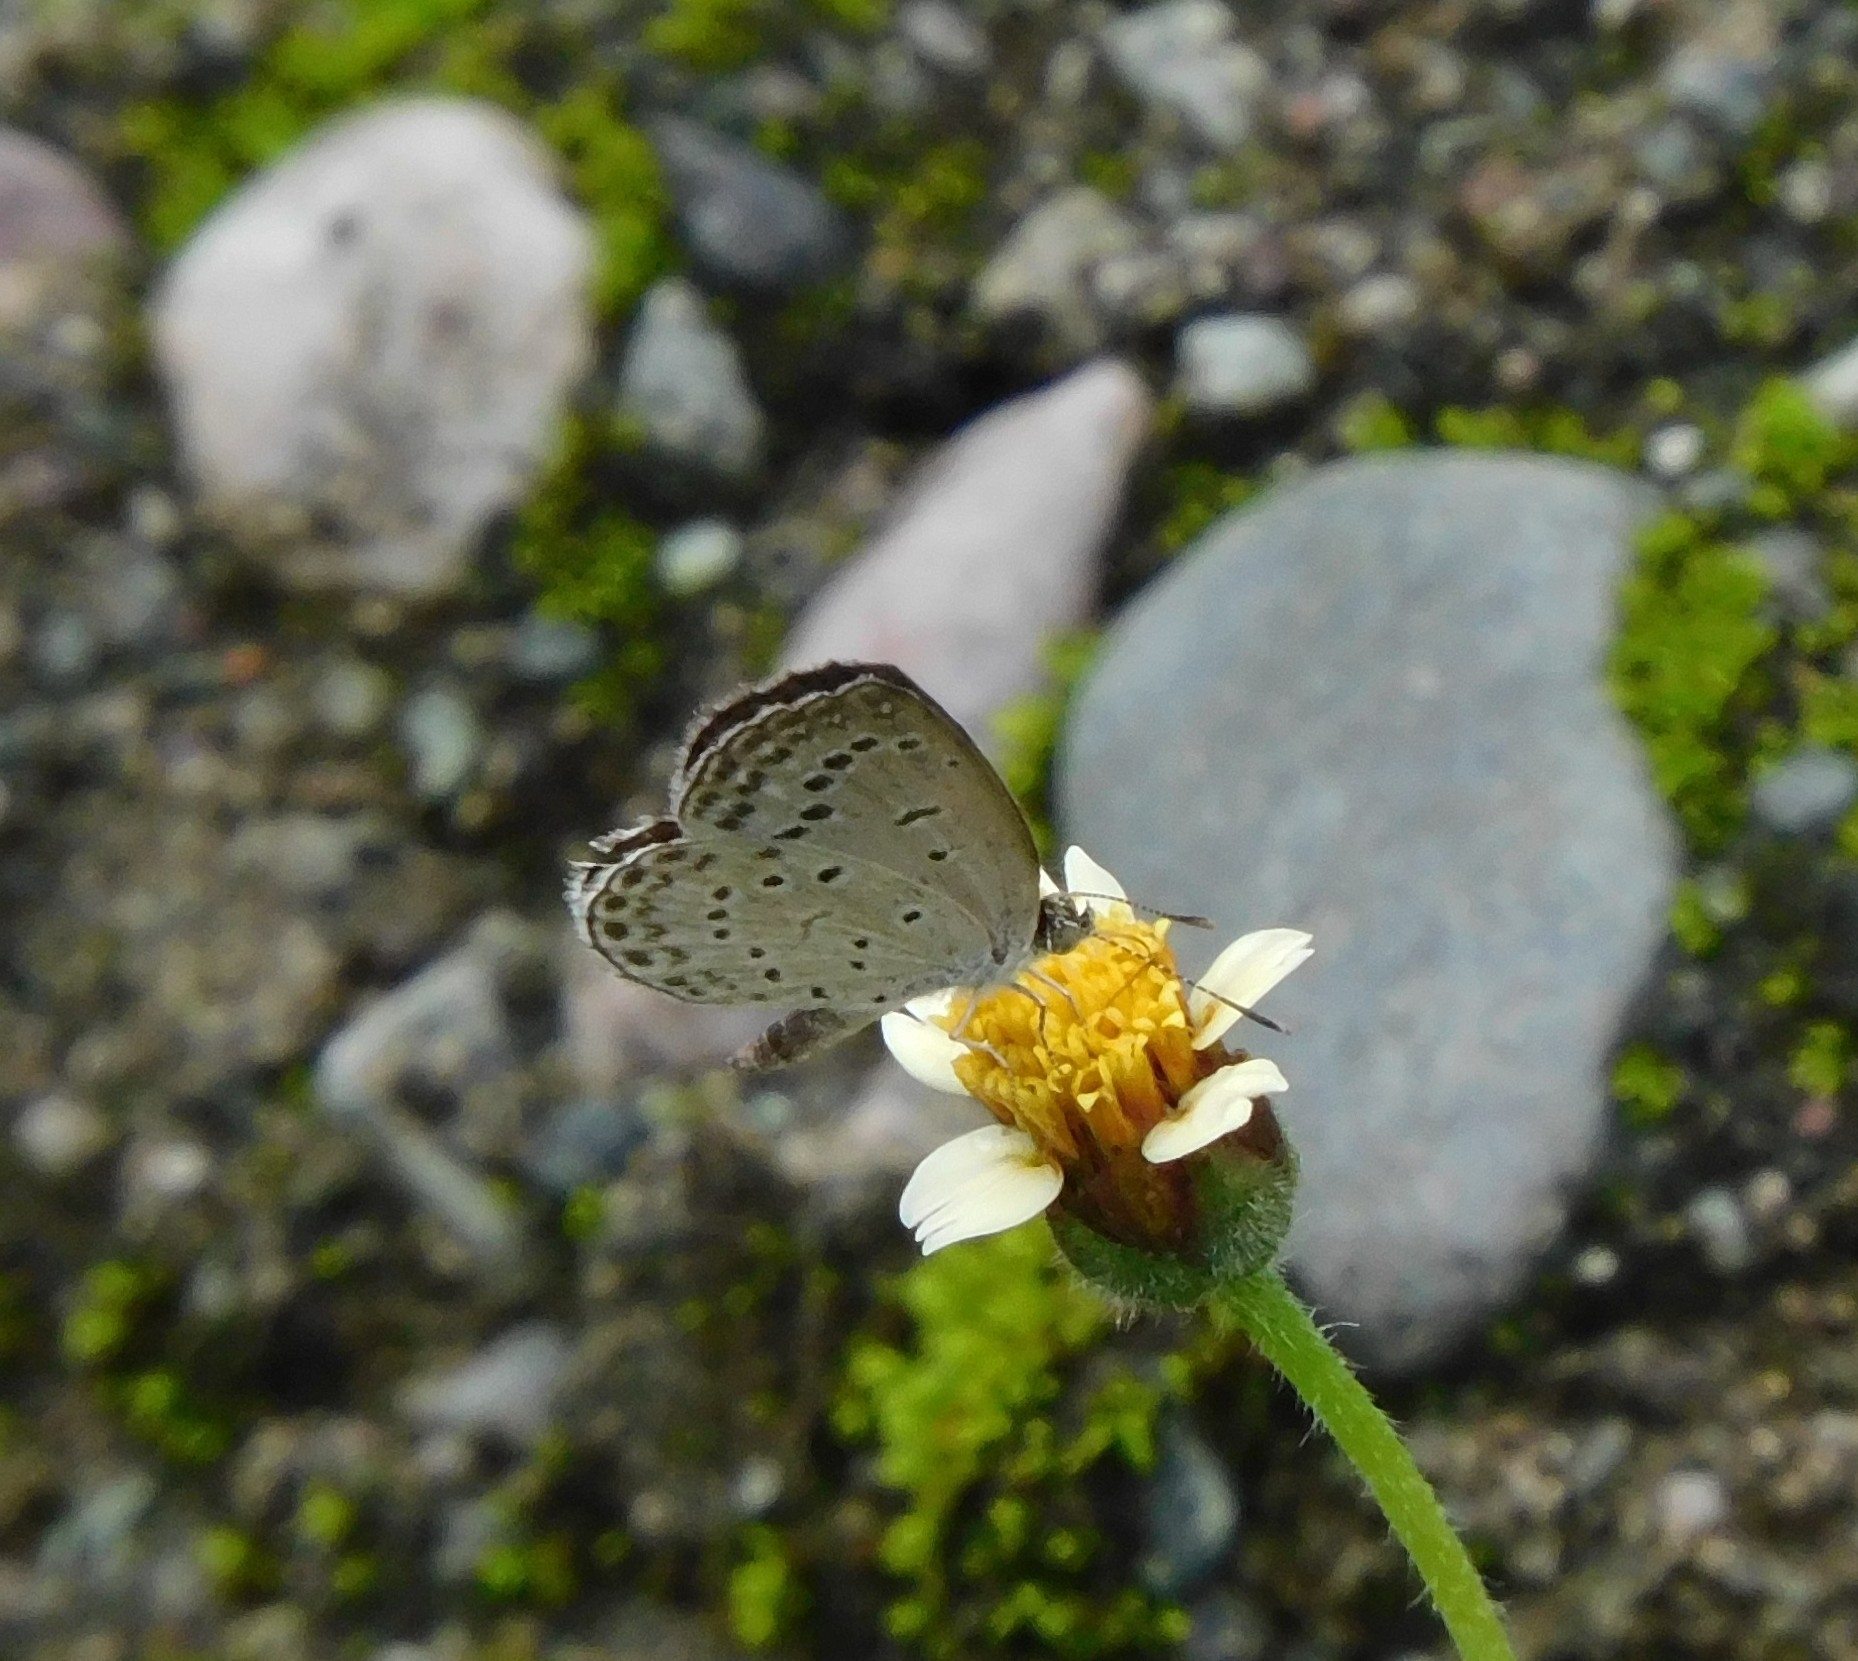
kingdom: Animalia
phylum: Arthropoda
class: Insecta
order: Lepidoptera
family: Lycaenidae
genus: Pseudozizeeria
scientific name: Pseudozizeeria maha
